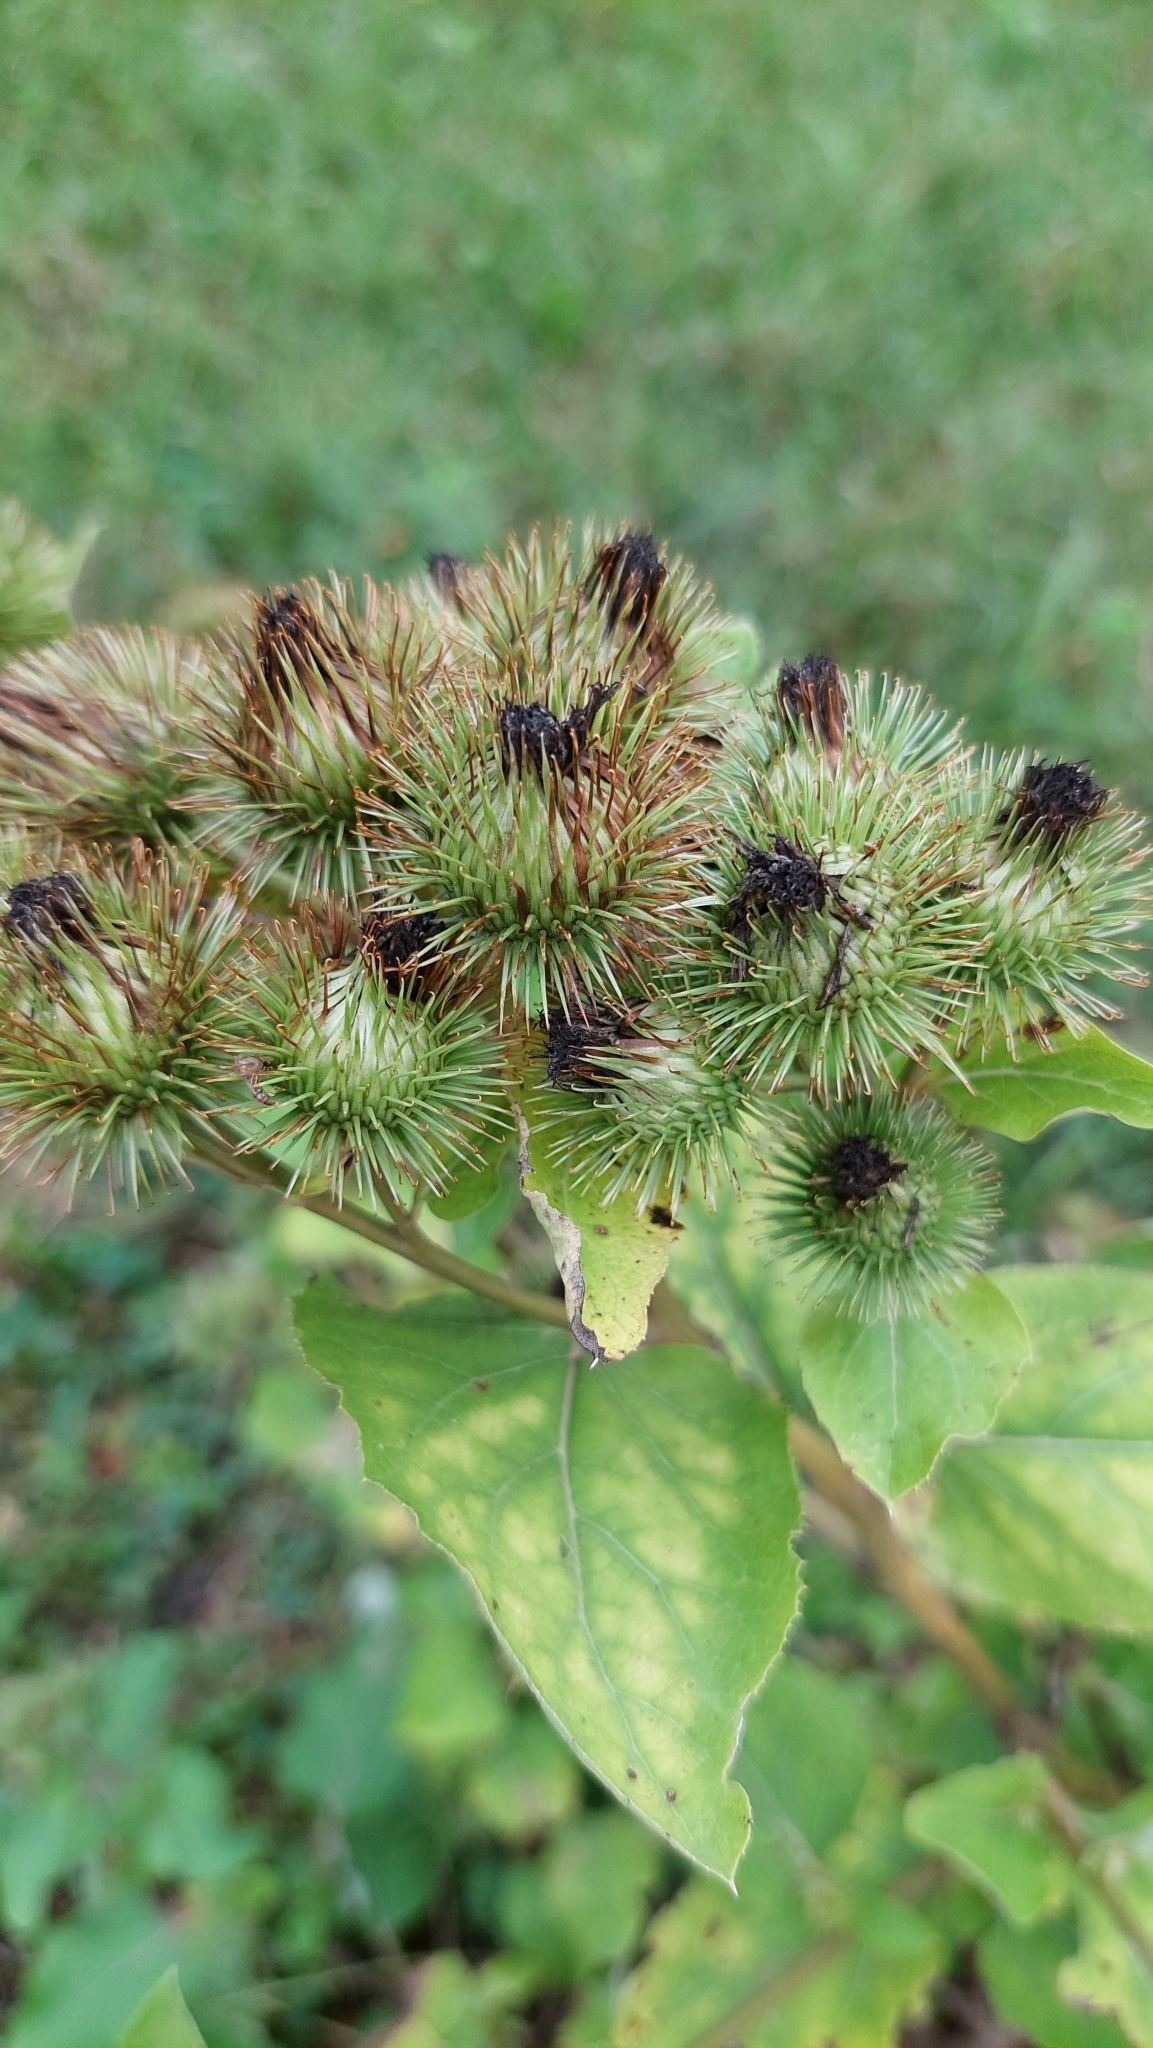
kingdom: Plantae
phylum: Tracheophyta
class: Magnoliopsida
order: Asterales
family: Asteraceae
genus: Arctium
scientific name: Arctium lappa
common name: Greater burdock
